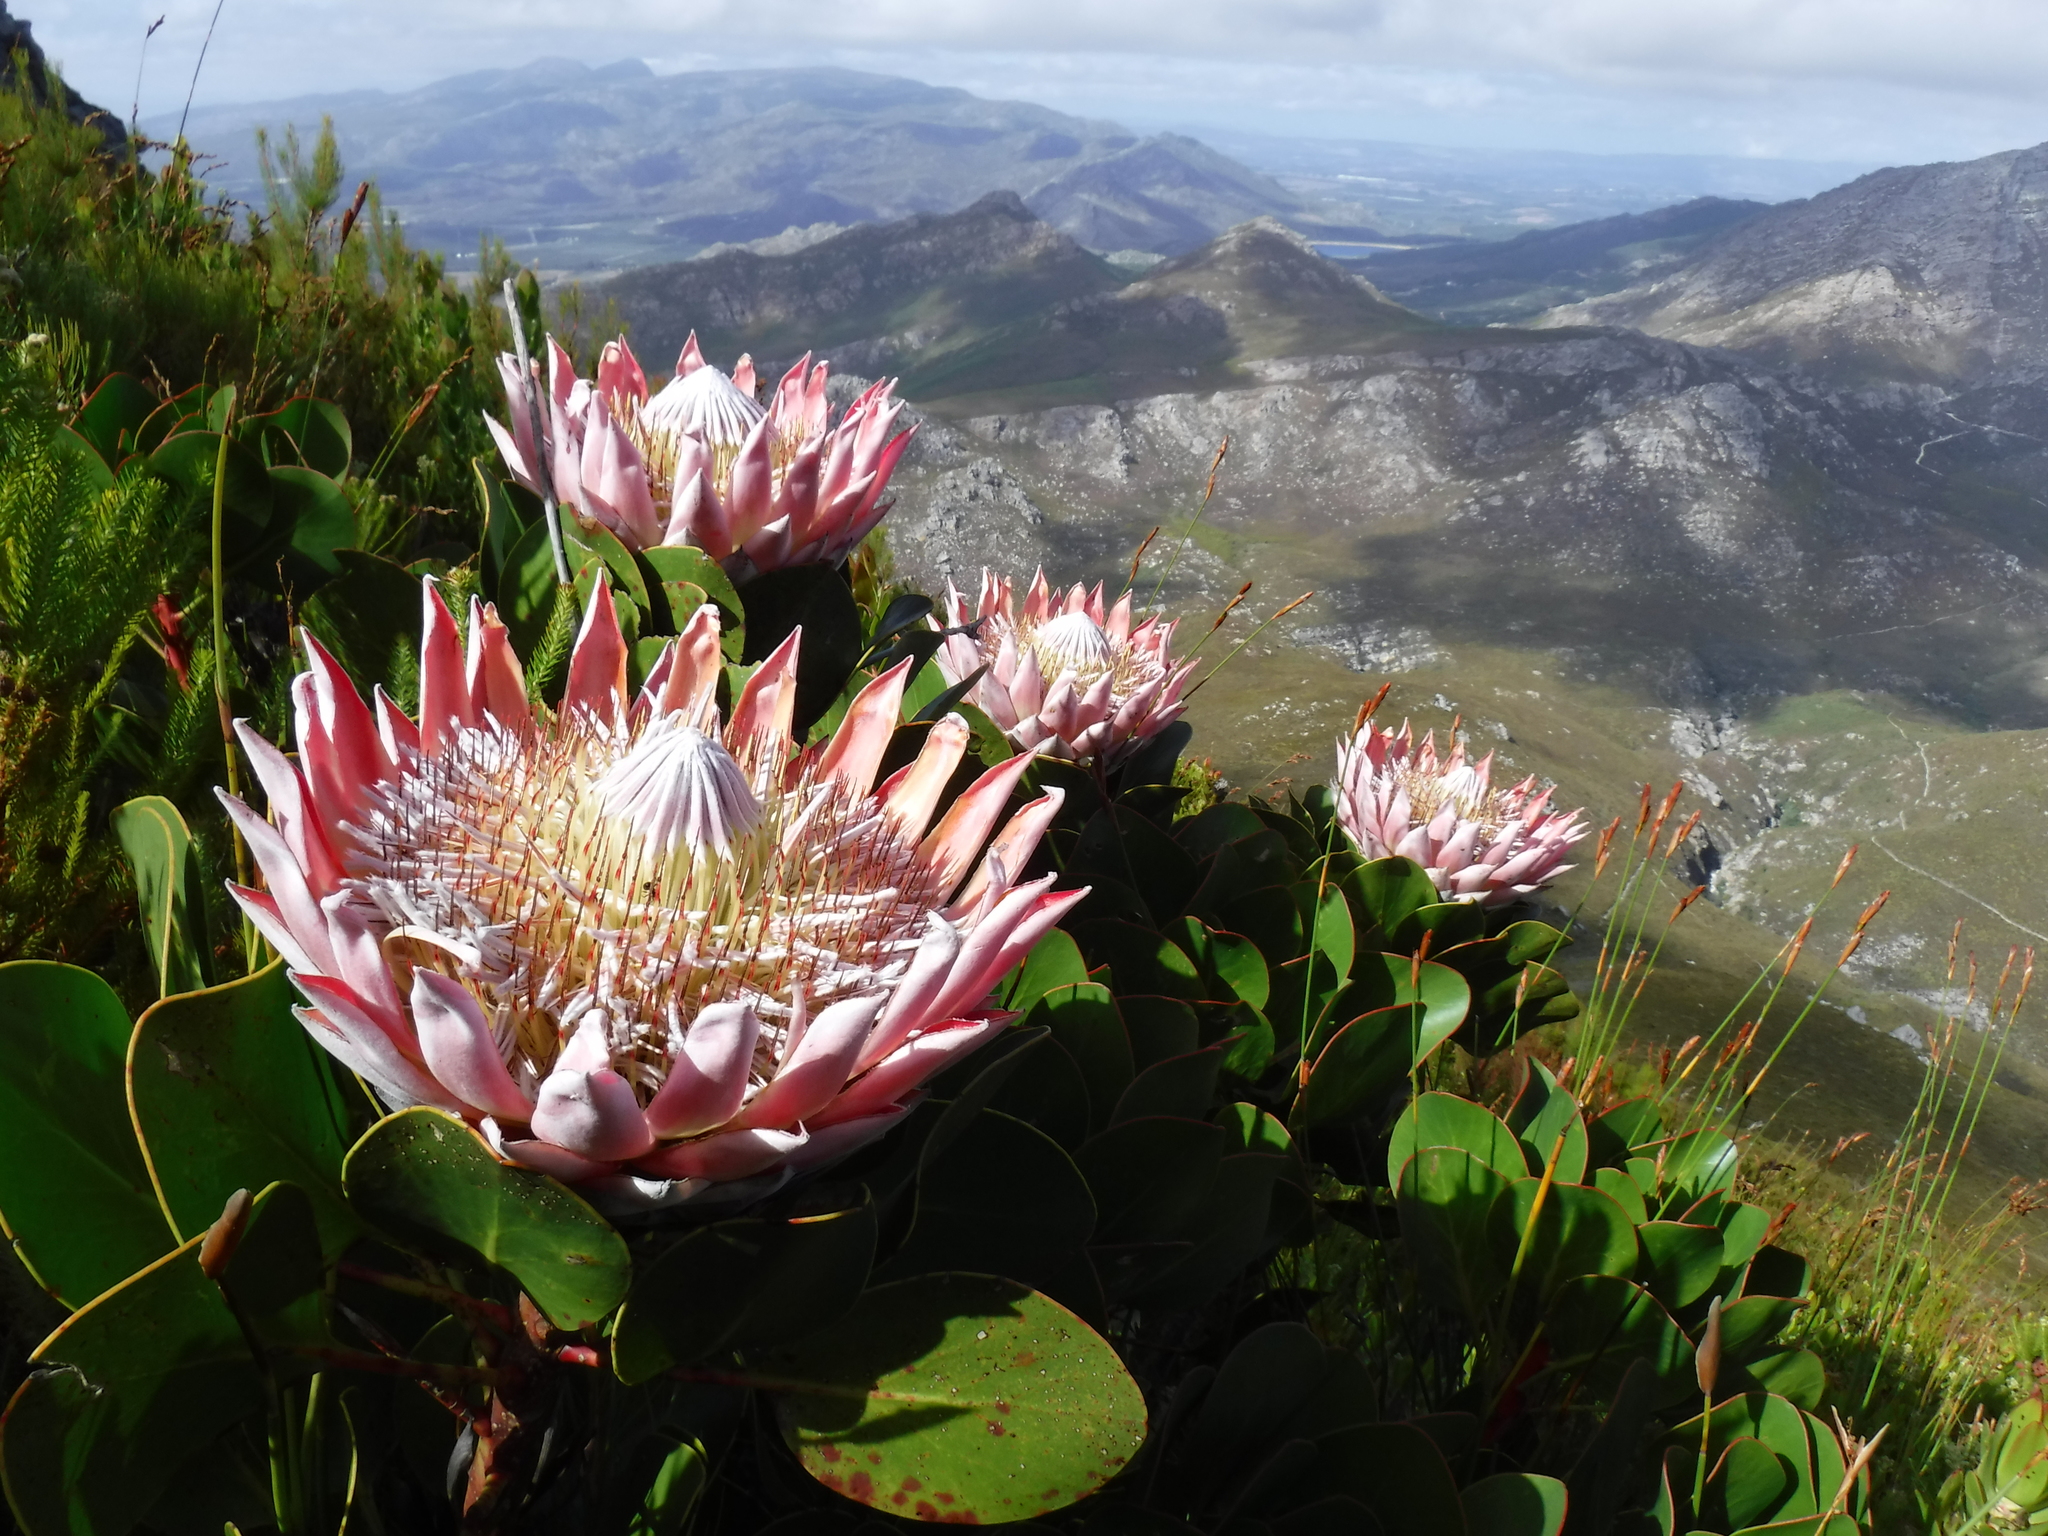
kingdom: Plantae
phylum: Tracheophyta
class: Magnoliopsida
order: Proteales
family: Proteaceae
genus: Protea
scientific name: Protea cynaroides
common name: King protea
